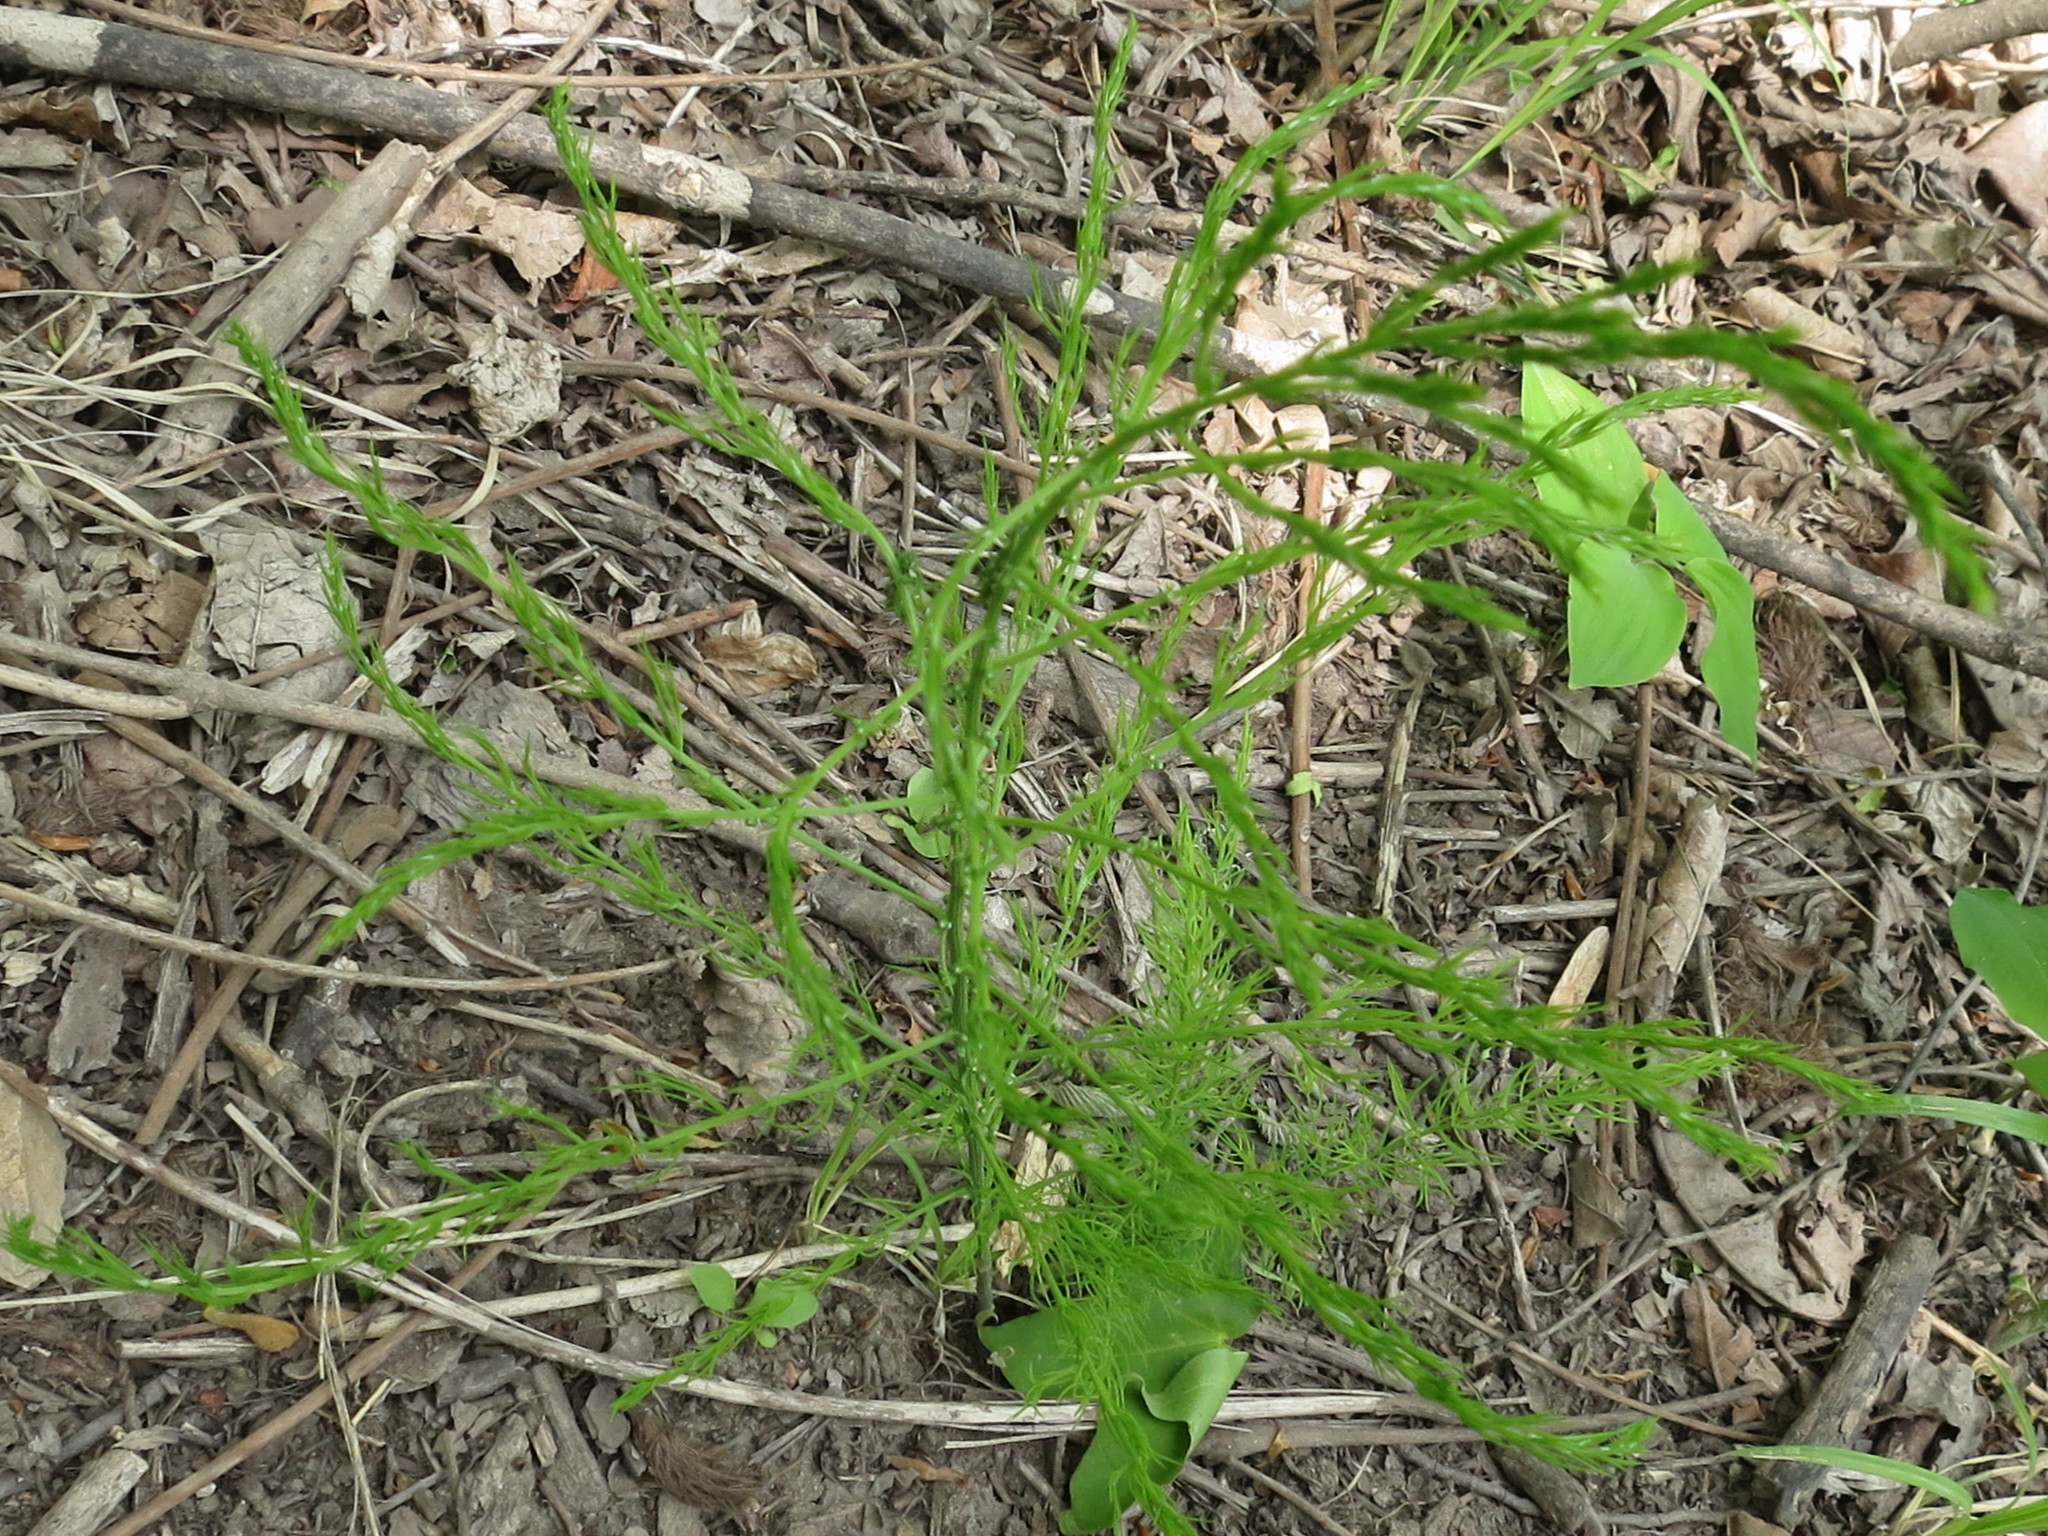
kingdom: Plantae
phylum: Tracheophyta
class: Liliopsida
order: Asparagales
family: Asparagaceae
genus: Asparagus
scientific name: Asparagus schoberioides
